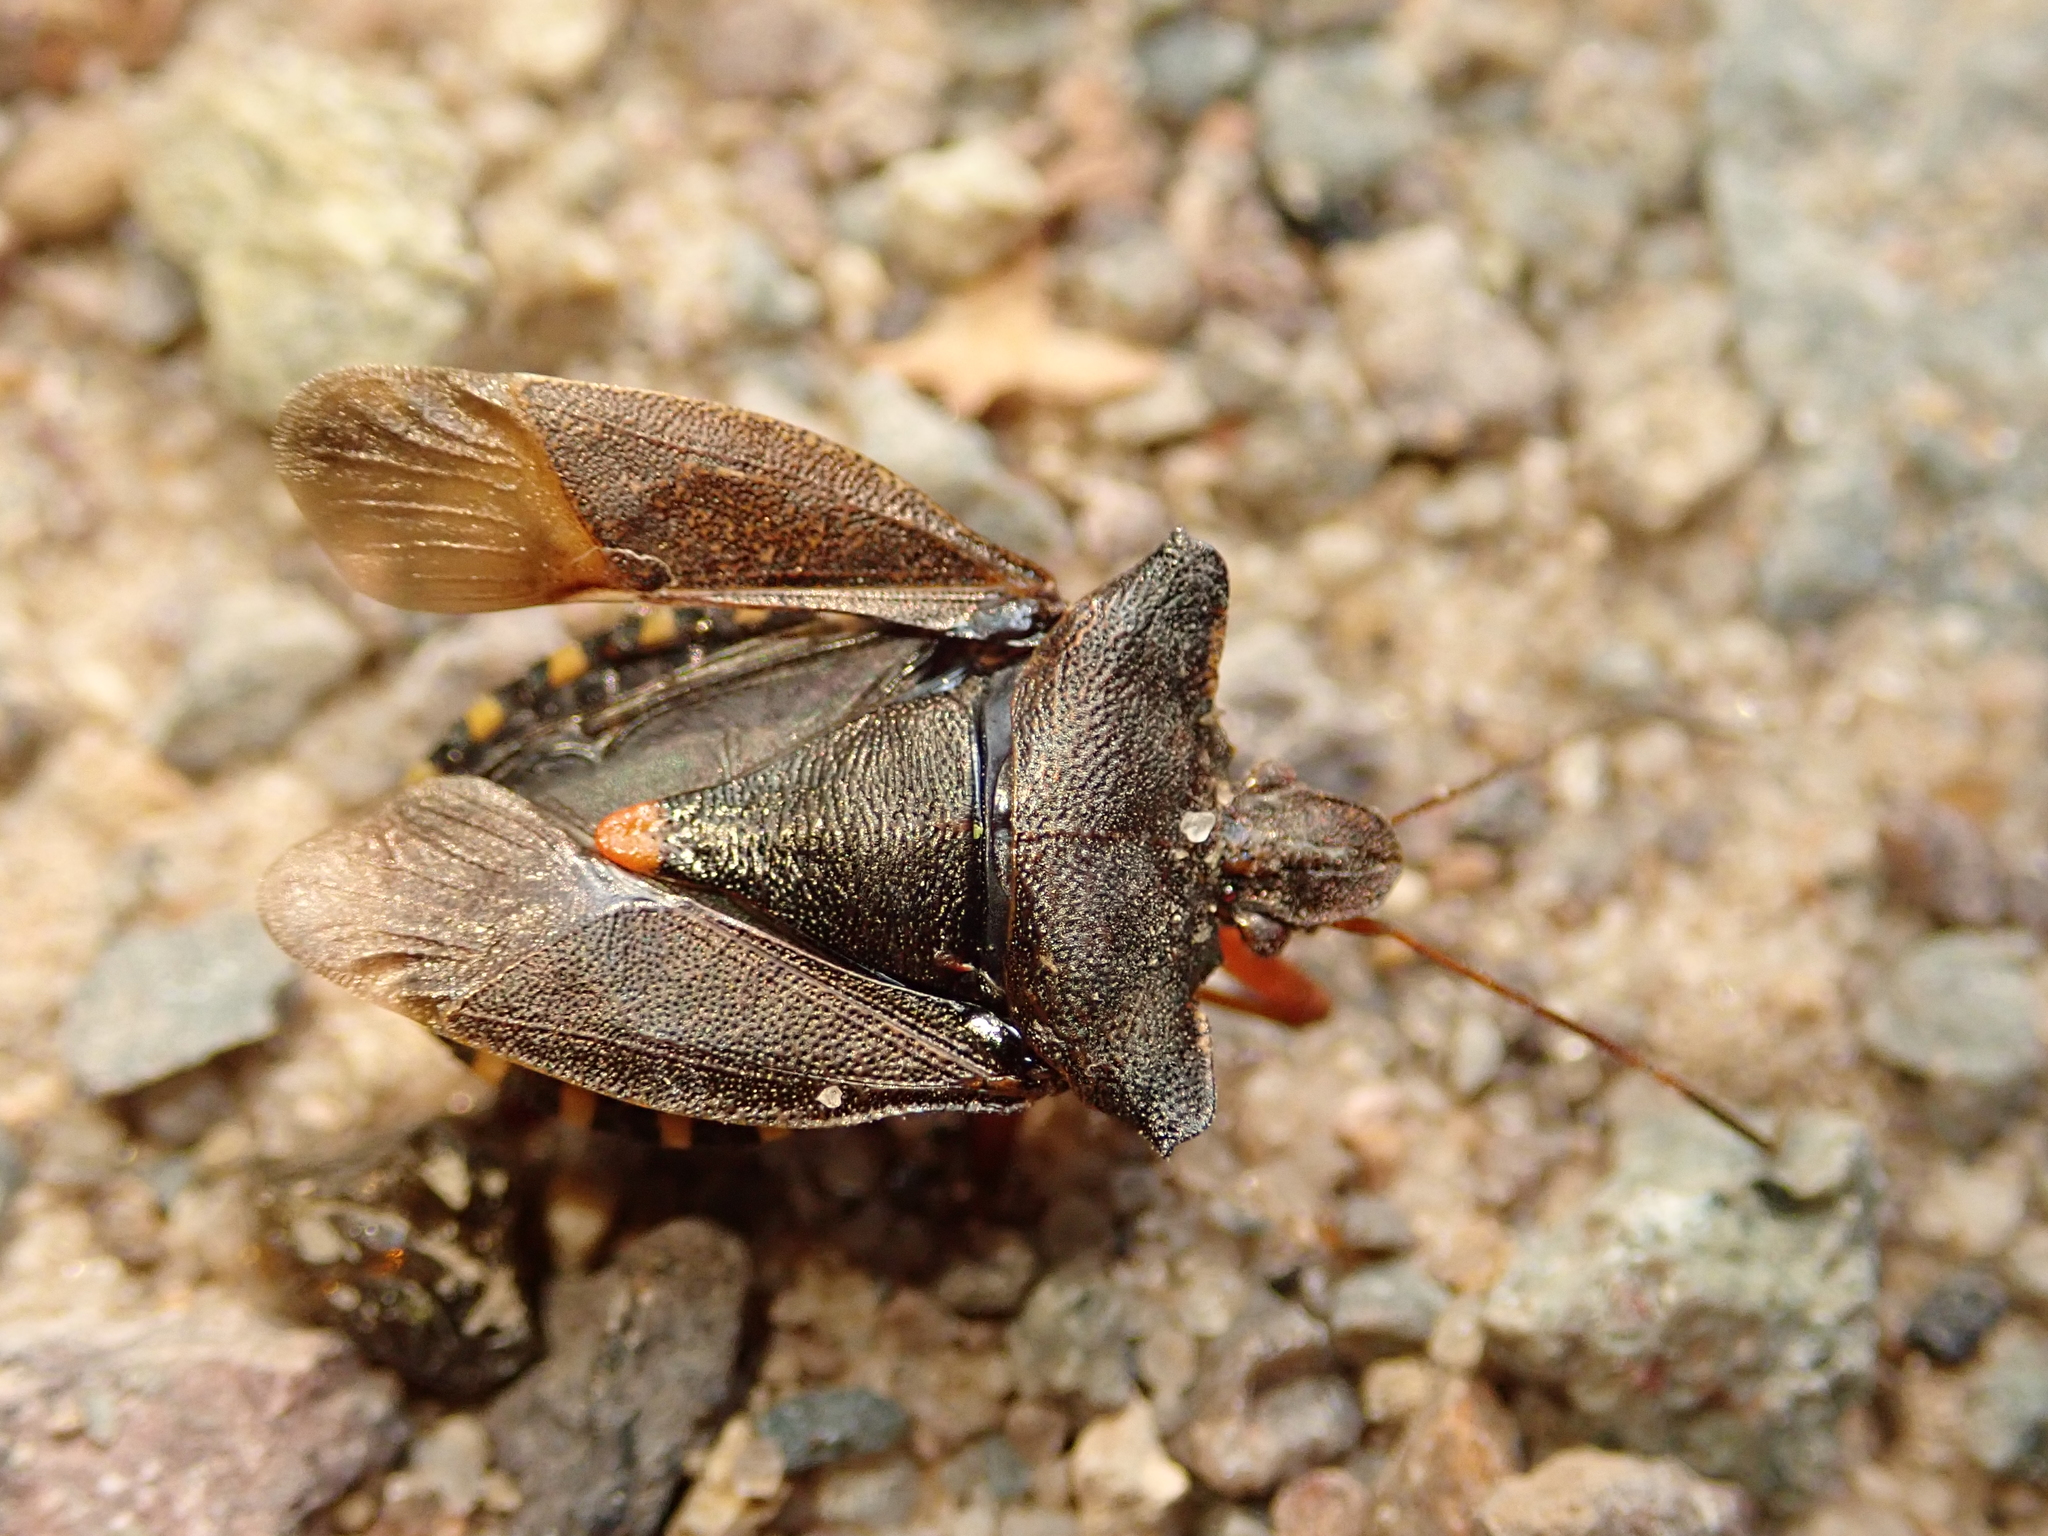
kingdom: Animalia
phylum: Arthropoda
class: Insecta
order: Hemiptera
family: Pentatomidae
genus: Pentatoma
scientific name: Pentatoma rufipes
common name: Forest bug
